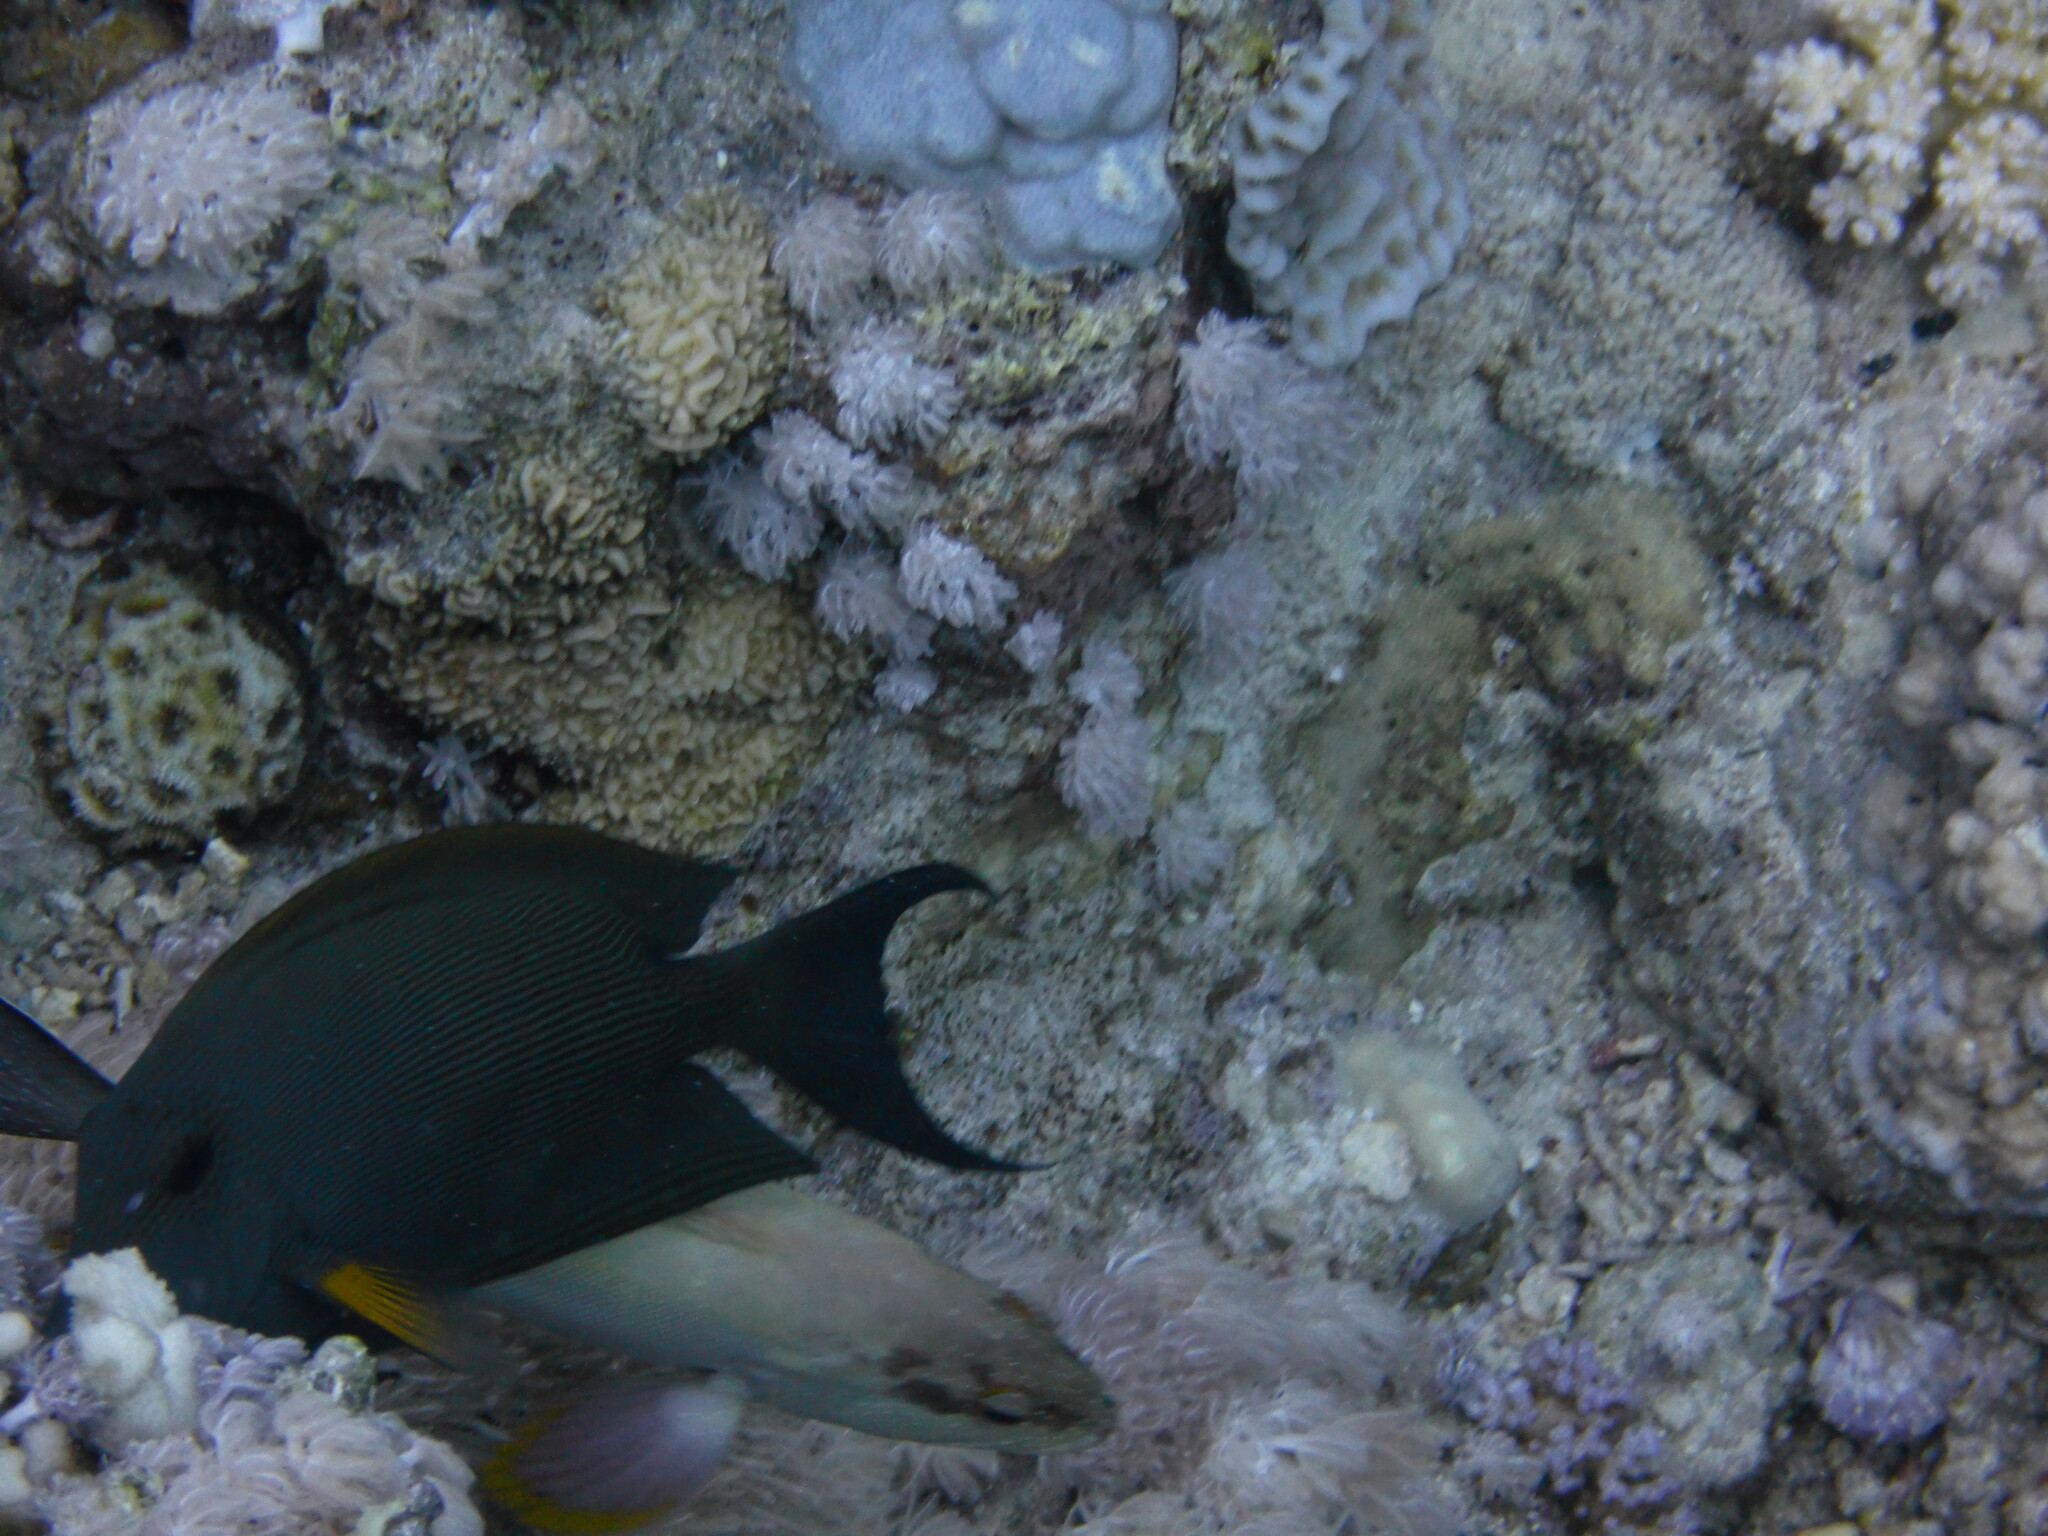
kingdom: Animalia
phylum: Chordata
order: Perciformes
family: Acanthuridae
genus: Ctenochaetus
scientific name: Ctenochaetus striatus
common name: Bristle-toothed surgeonfish
